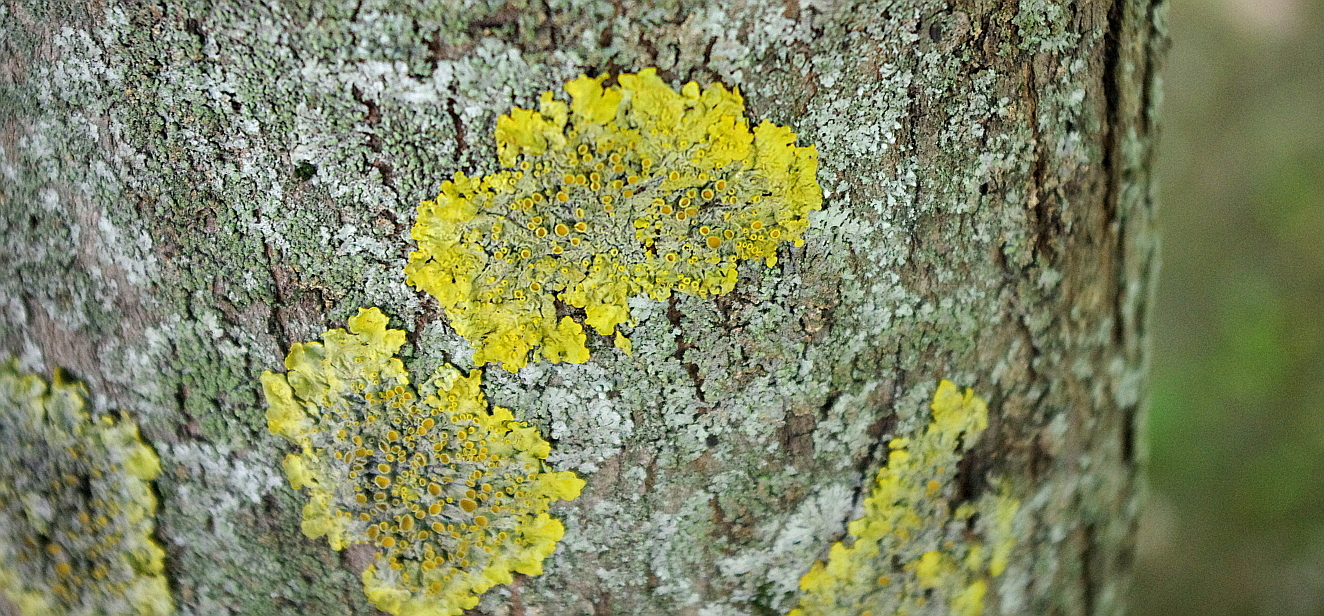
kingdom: Fungi
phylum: Ascomycota
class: Lecanoromycetes
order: Teloschistales
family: Teloschistaceae
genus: Xanthoria
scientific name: Xanthoria parietina
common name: Common orange lichen
